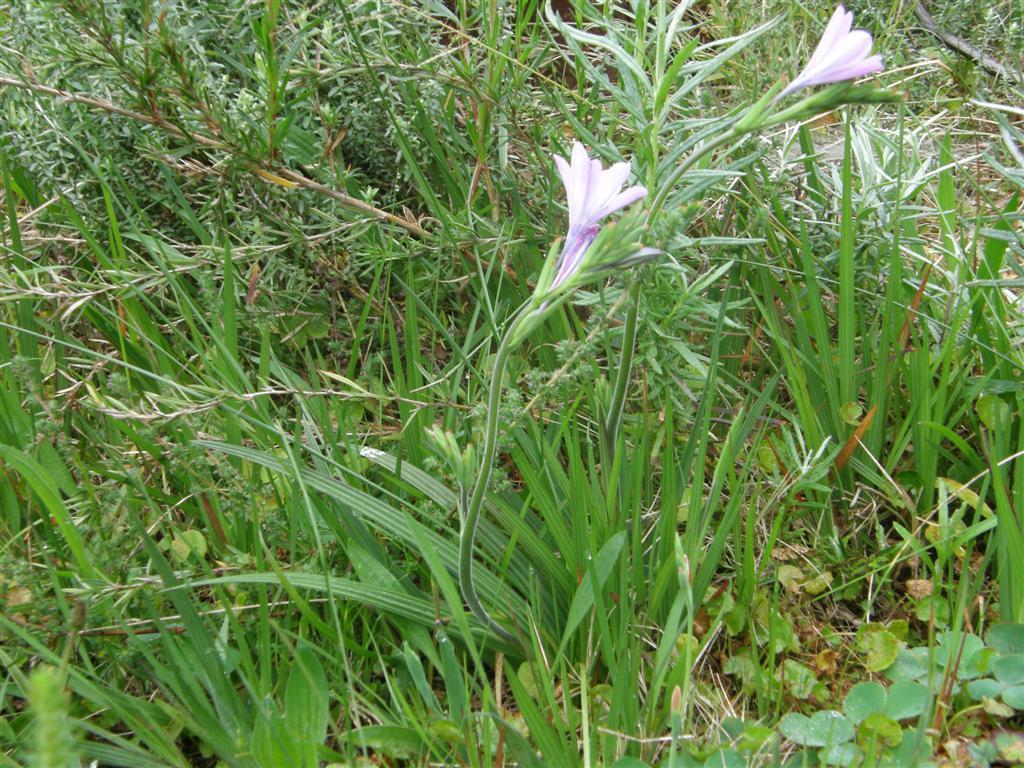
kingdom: Plantae
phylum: Tracheophyta
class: Liliopsida
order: Asparagales
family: Iridaceae
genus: Babiana
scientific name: Babiana nervosa
